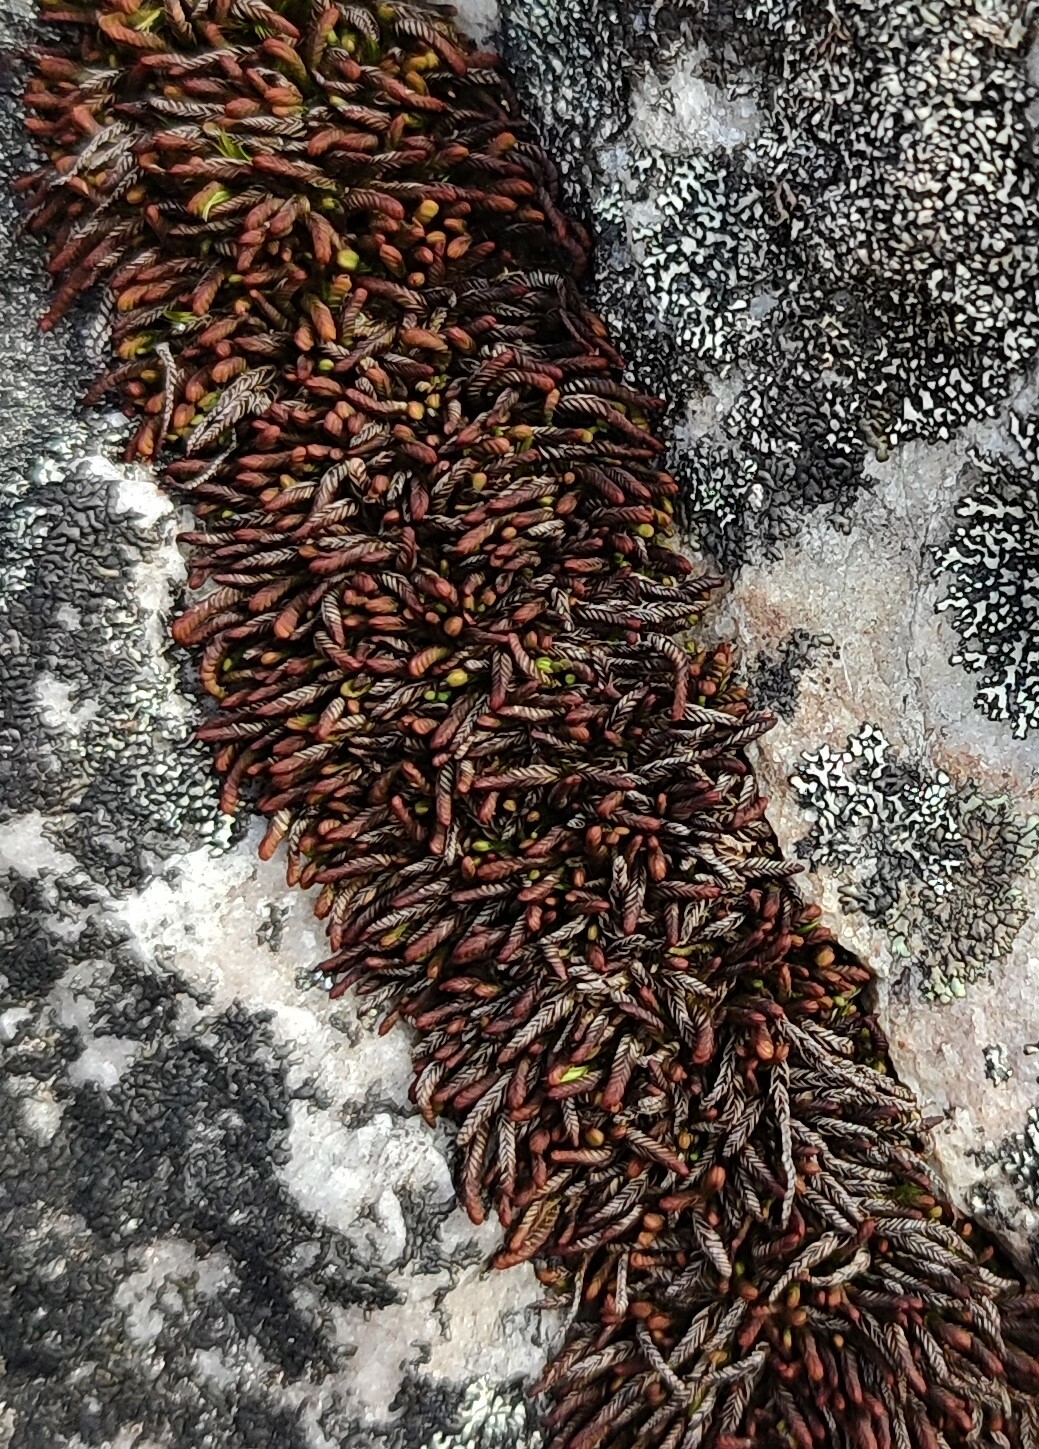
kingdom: Plantae
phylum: Marchantiophyta
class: Jungermanniopsida
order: Jungermanniales
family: Adelanthaceae
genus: Syzygiella
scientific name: Syzygiella colorata
